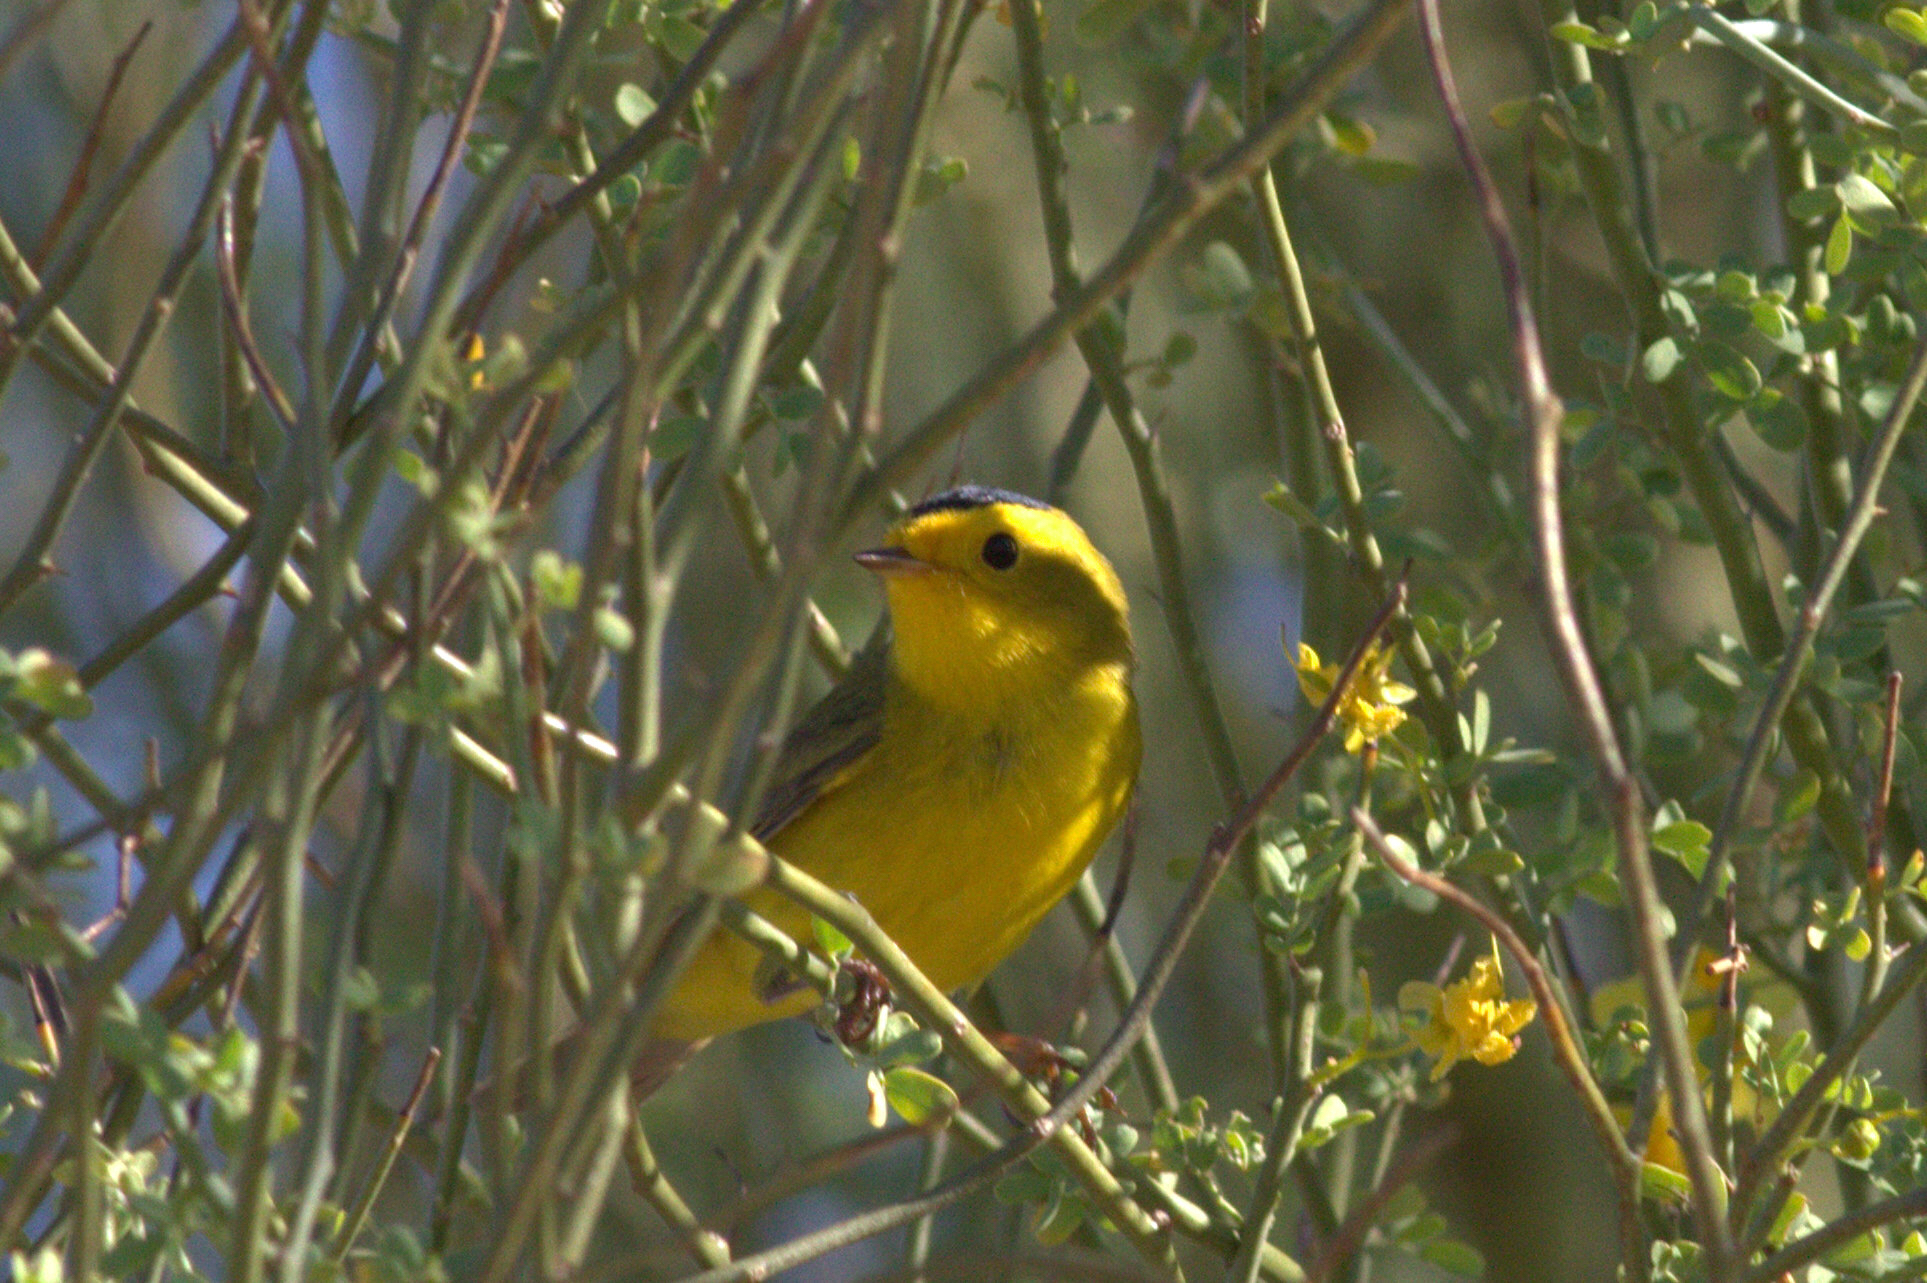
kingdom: Animalia
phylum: Chordata
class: Aves
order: Passeriformes
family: Parulidae
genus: Cardellina
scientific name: Cardellina pusilla
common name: Wilson's warbler
